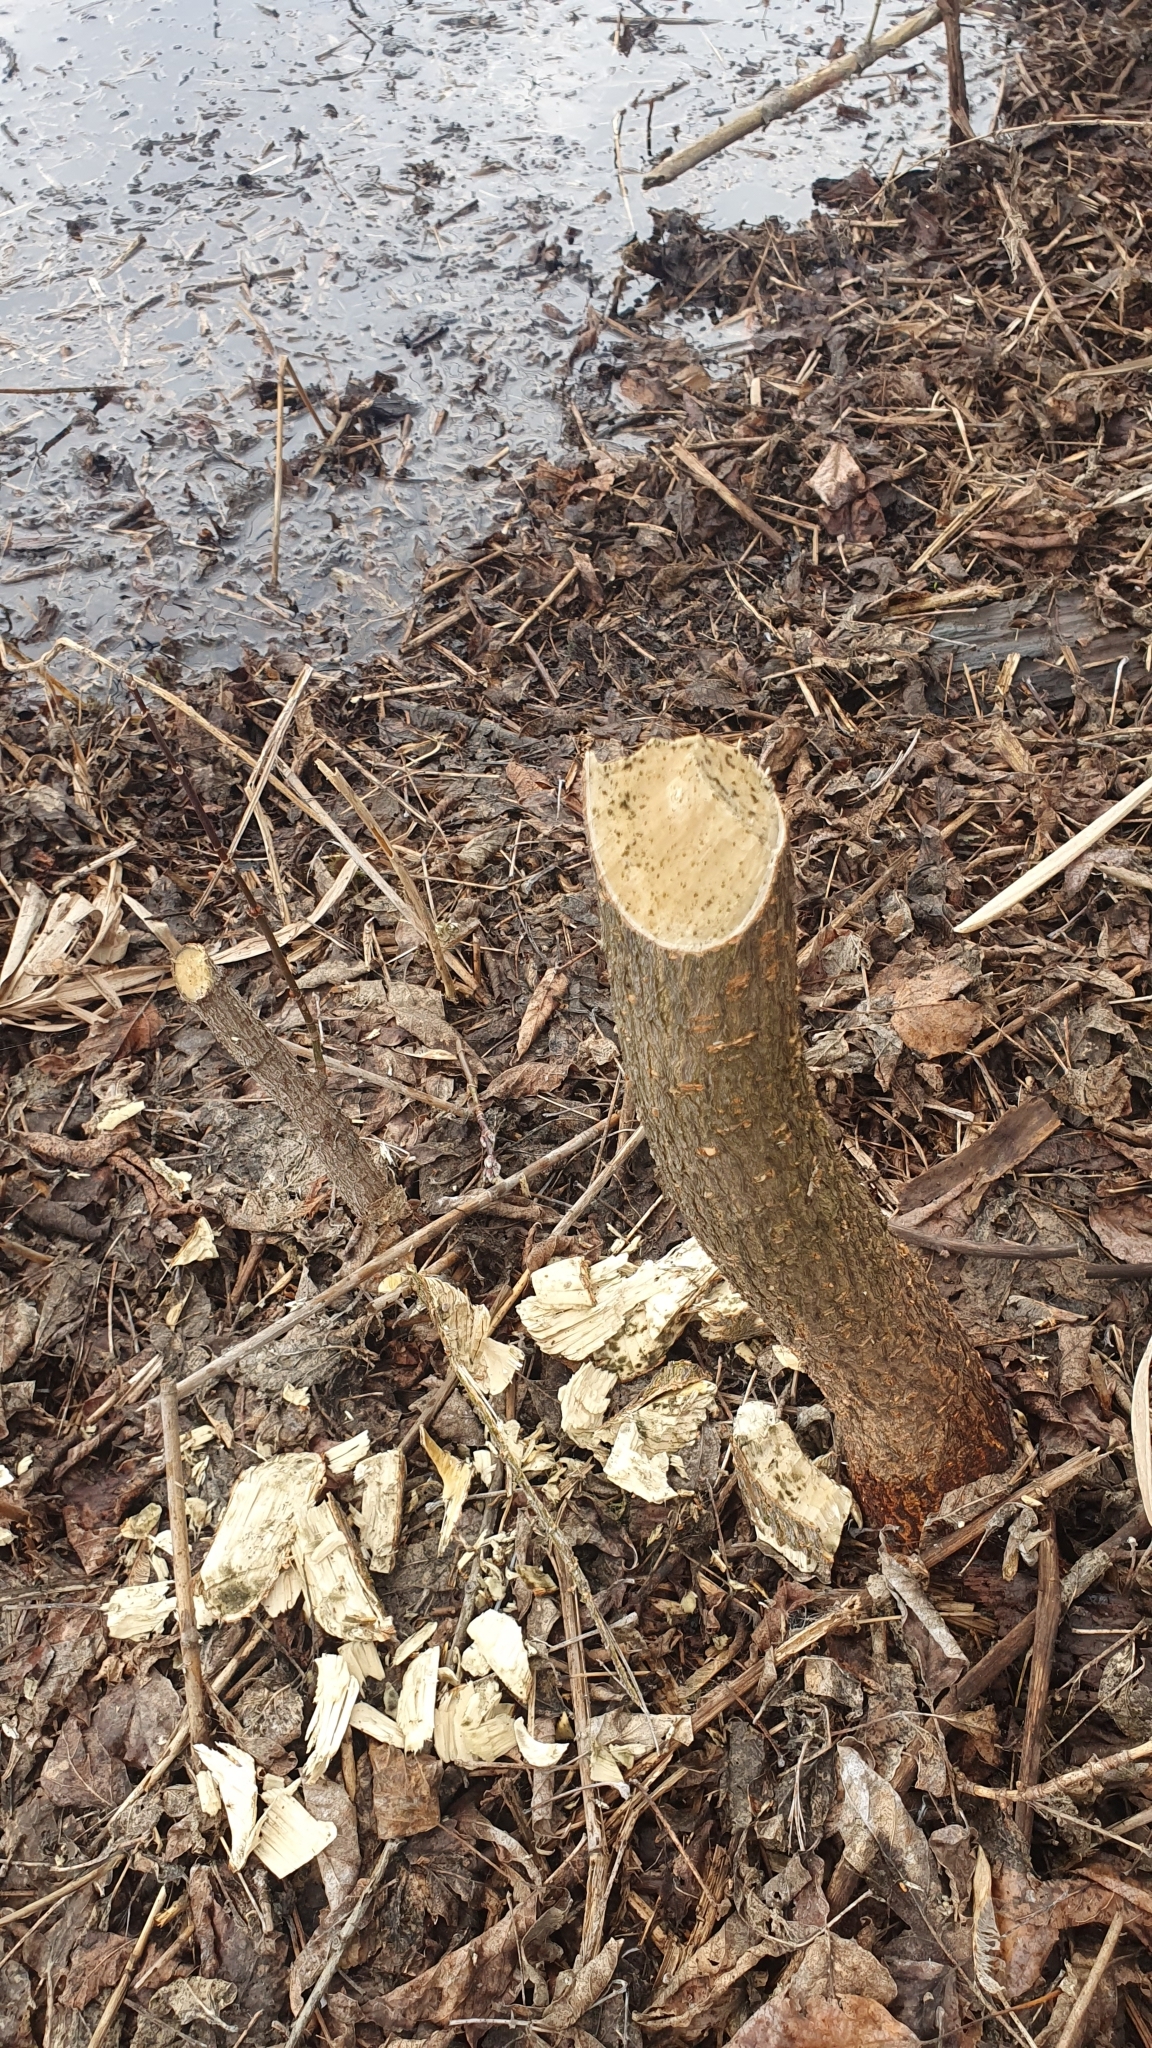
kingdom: Animalia
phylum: Chordata
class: Mammalia
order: Rodentia
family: Castoridae
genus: Castor
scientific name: Castor fiber
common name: Eurasian beaver
